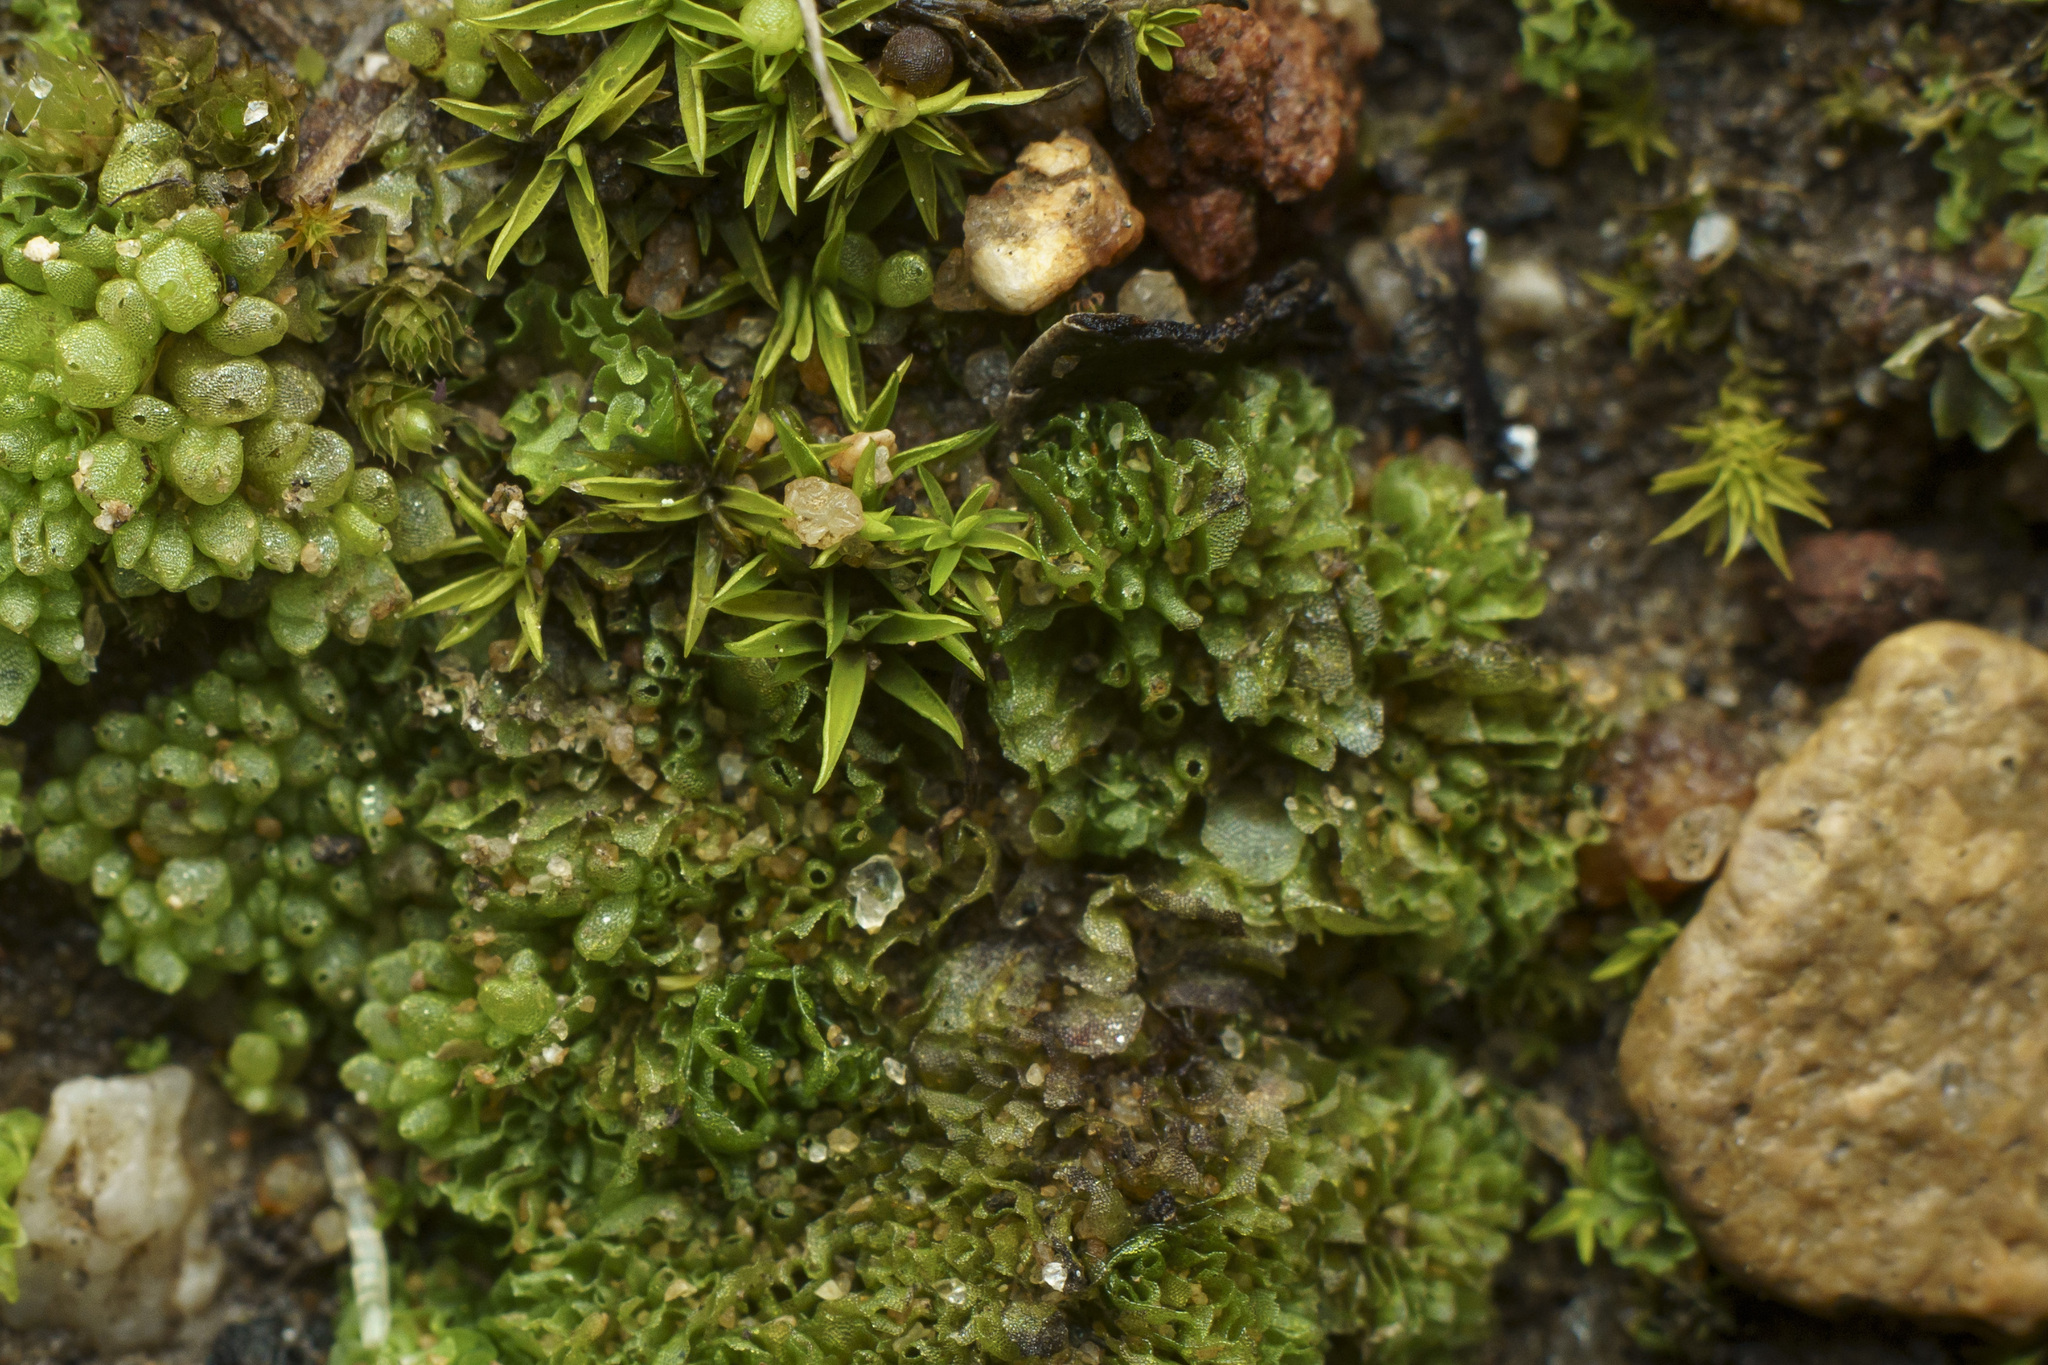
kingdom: Plantae
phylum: Marchantiophyta
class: Marchantiopsida
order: Sphaerocarpales
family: Sphaerocarpaceae
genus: Geothallus
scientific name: Geothallus tuberosus
